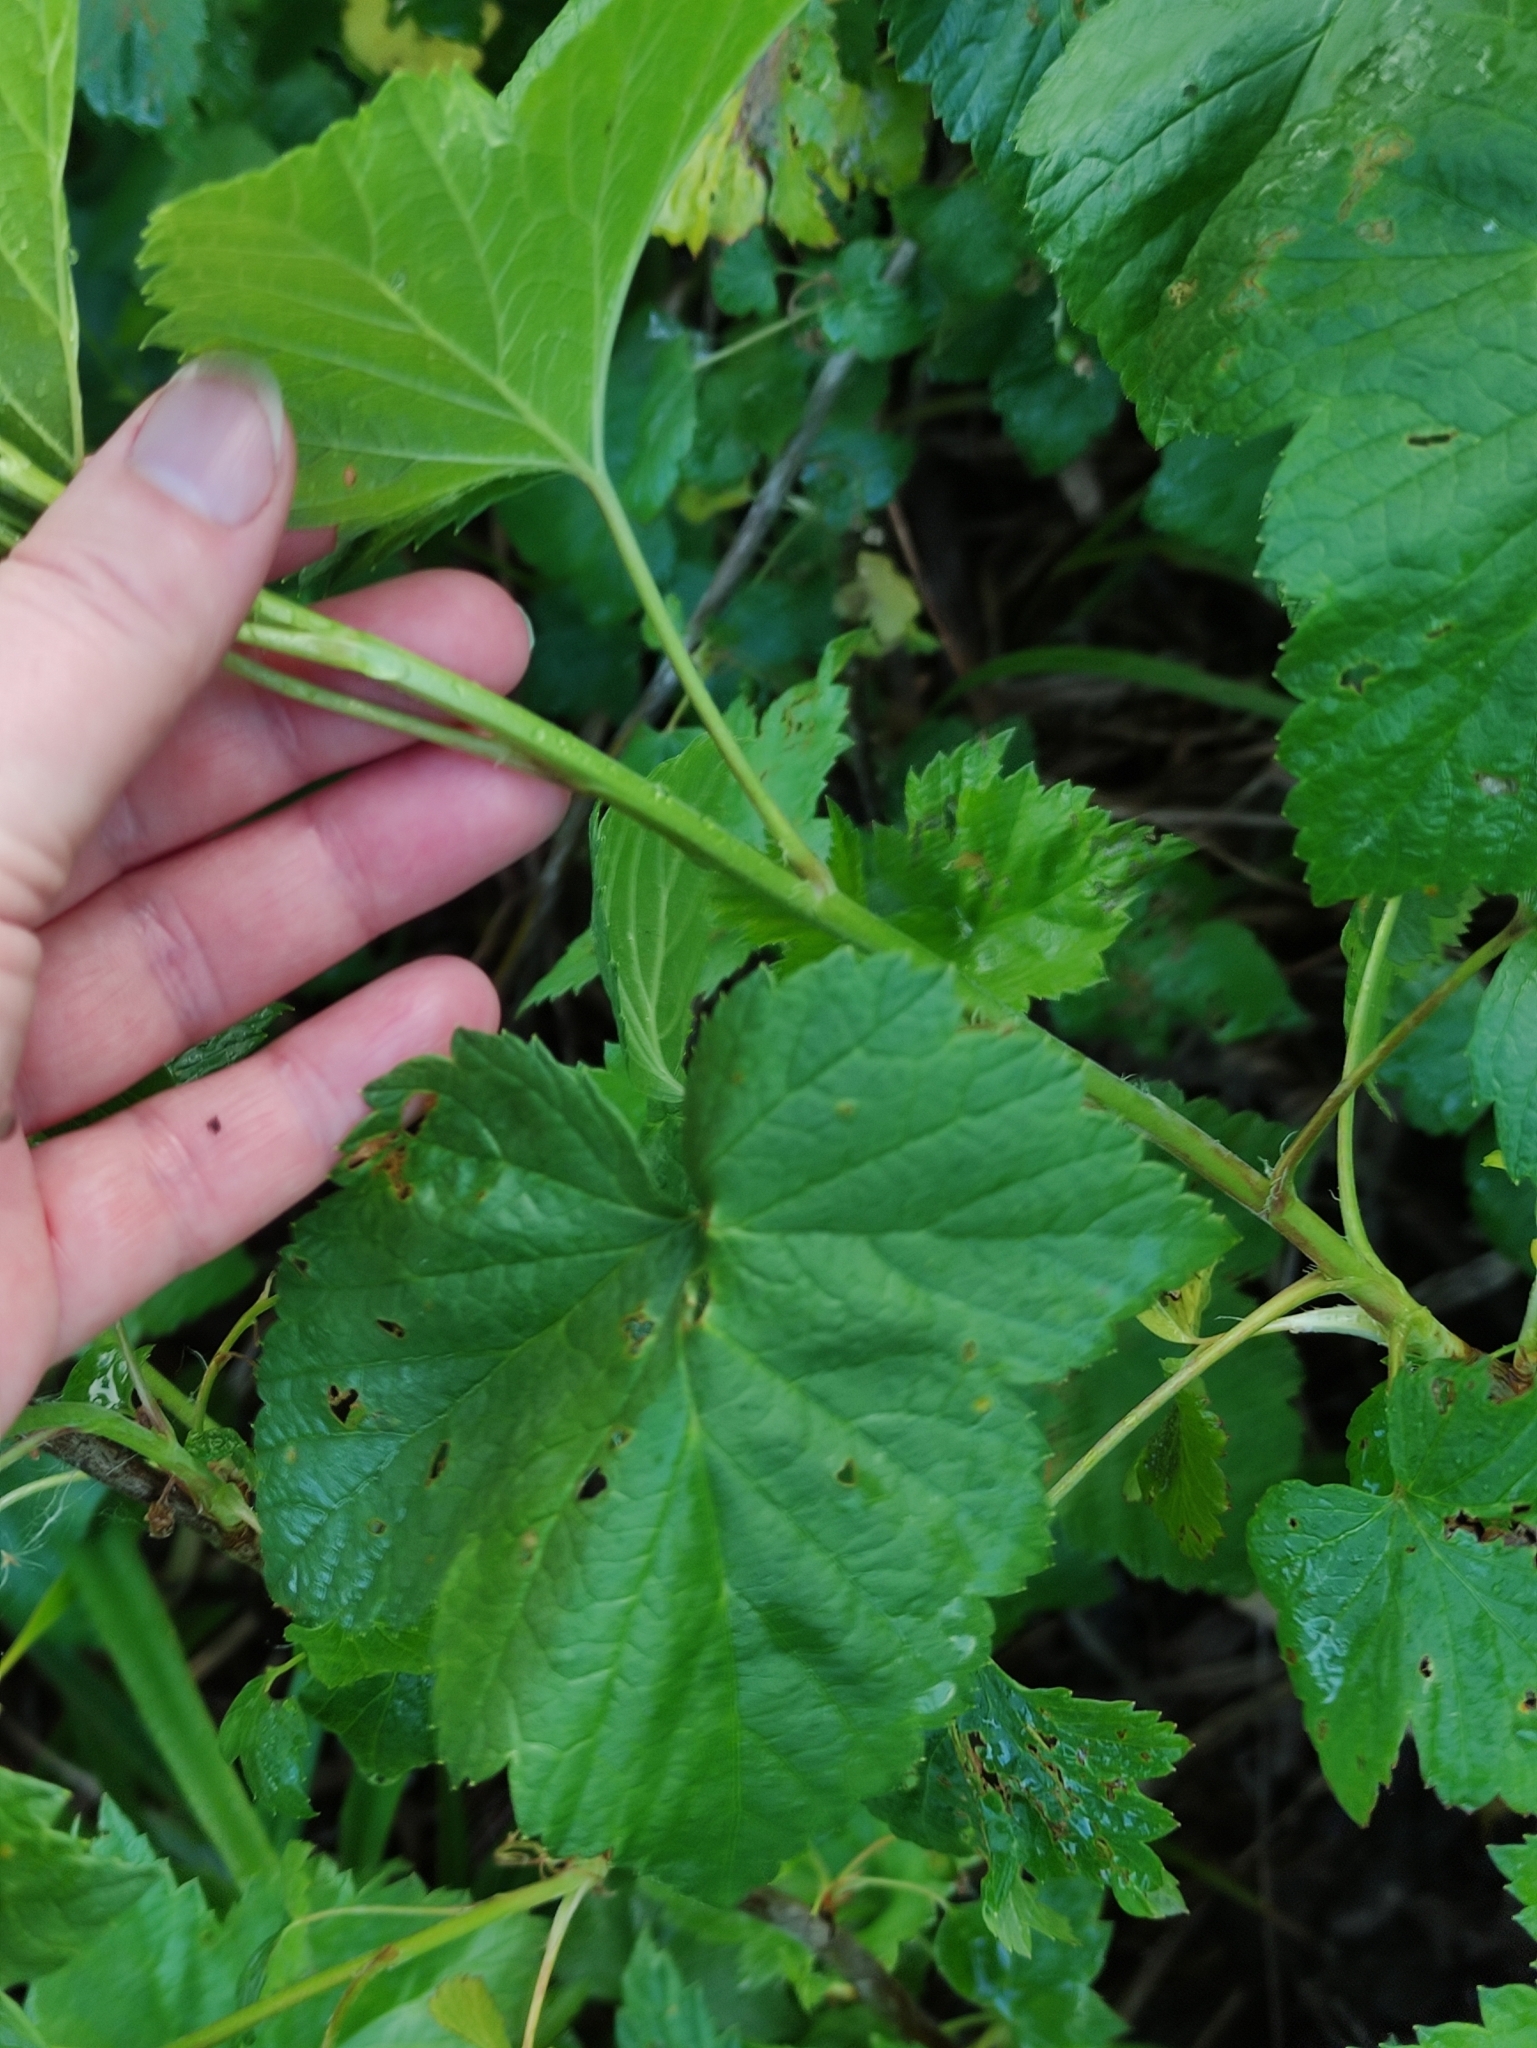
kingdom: Plantae
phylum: Tracheophyta
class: Magnoliopsida
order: Saxifragales
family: Grossulariaceae
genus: Ribes
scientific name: Ribes nigrum
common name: Black currant
